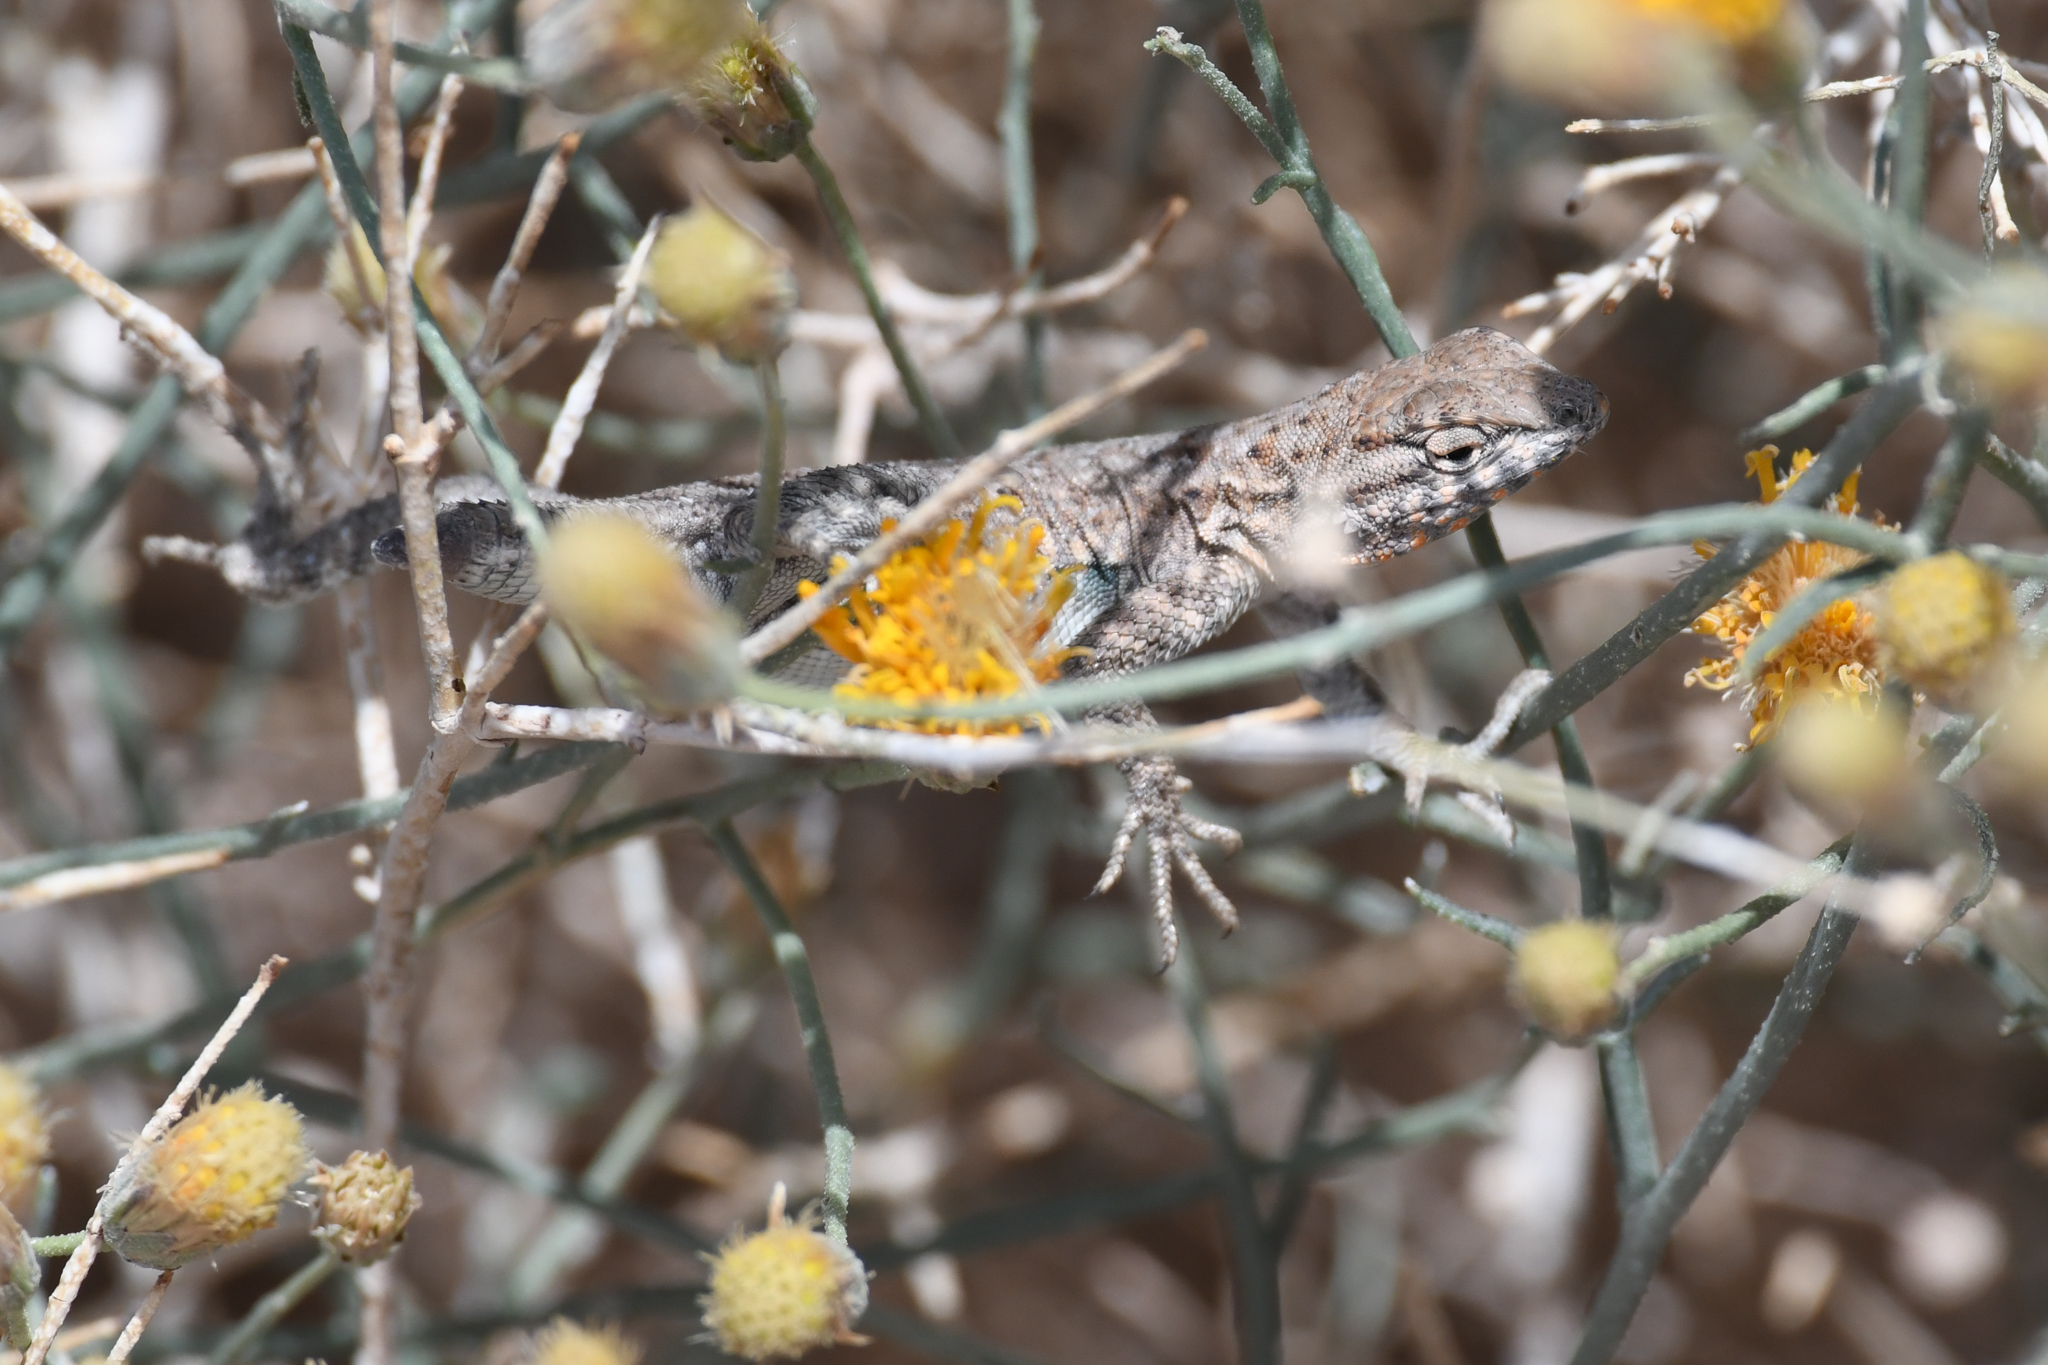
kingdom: Animalia
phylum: Chordata
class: Squamata
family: Phrynosomatidae
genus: Uta
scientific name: Uta stansburiana
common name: Side-blotched lizard
